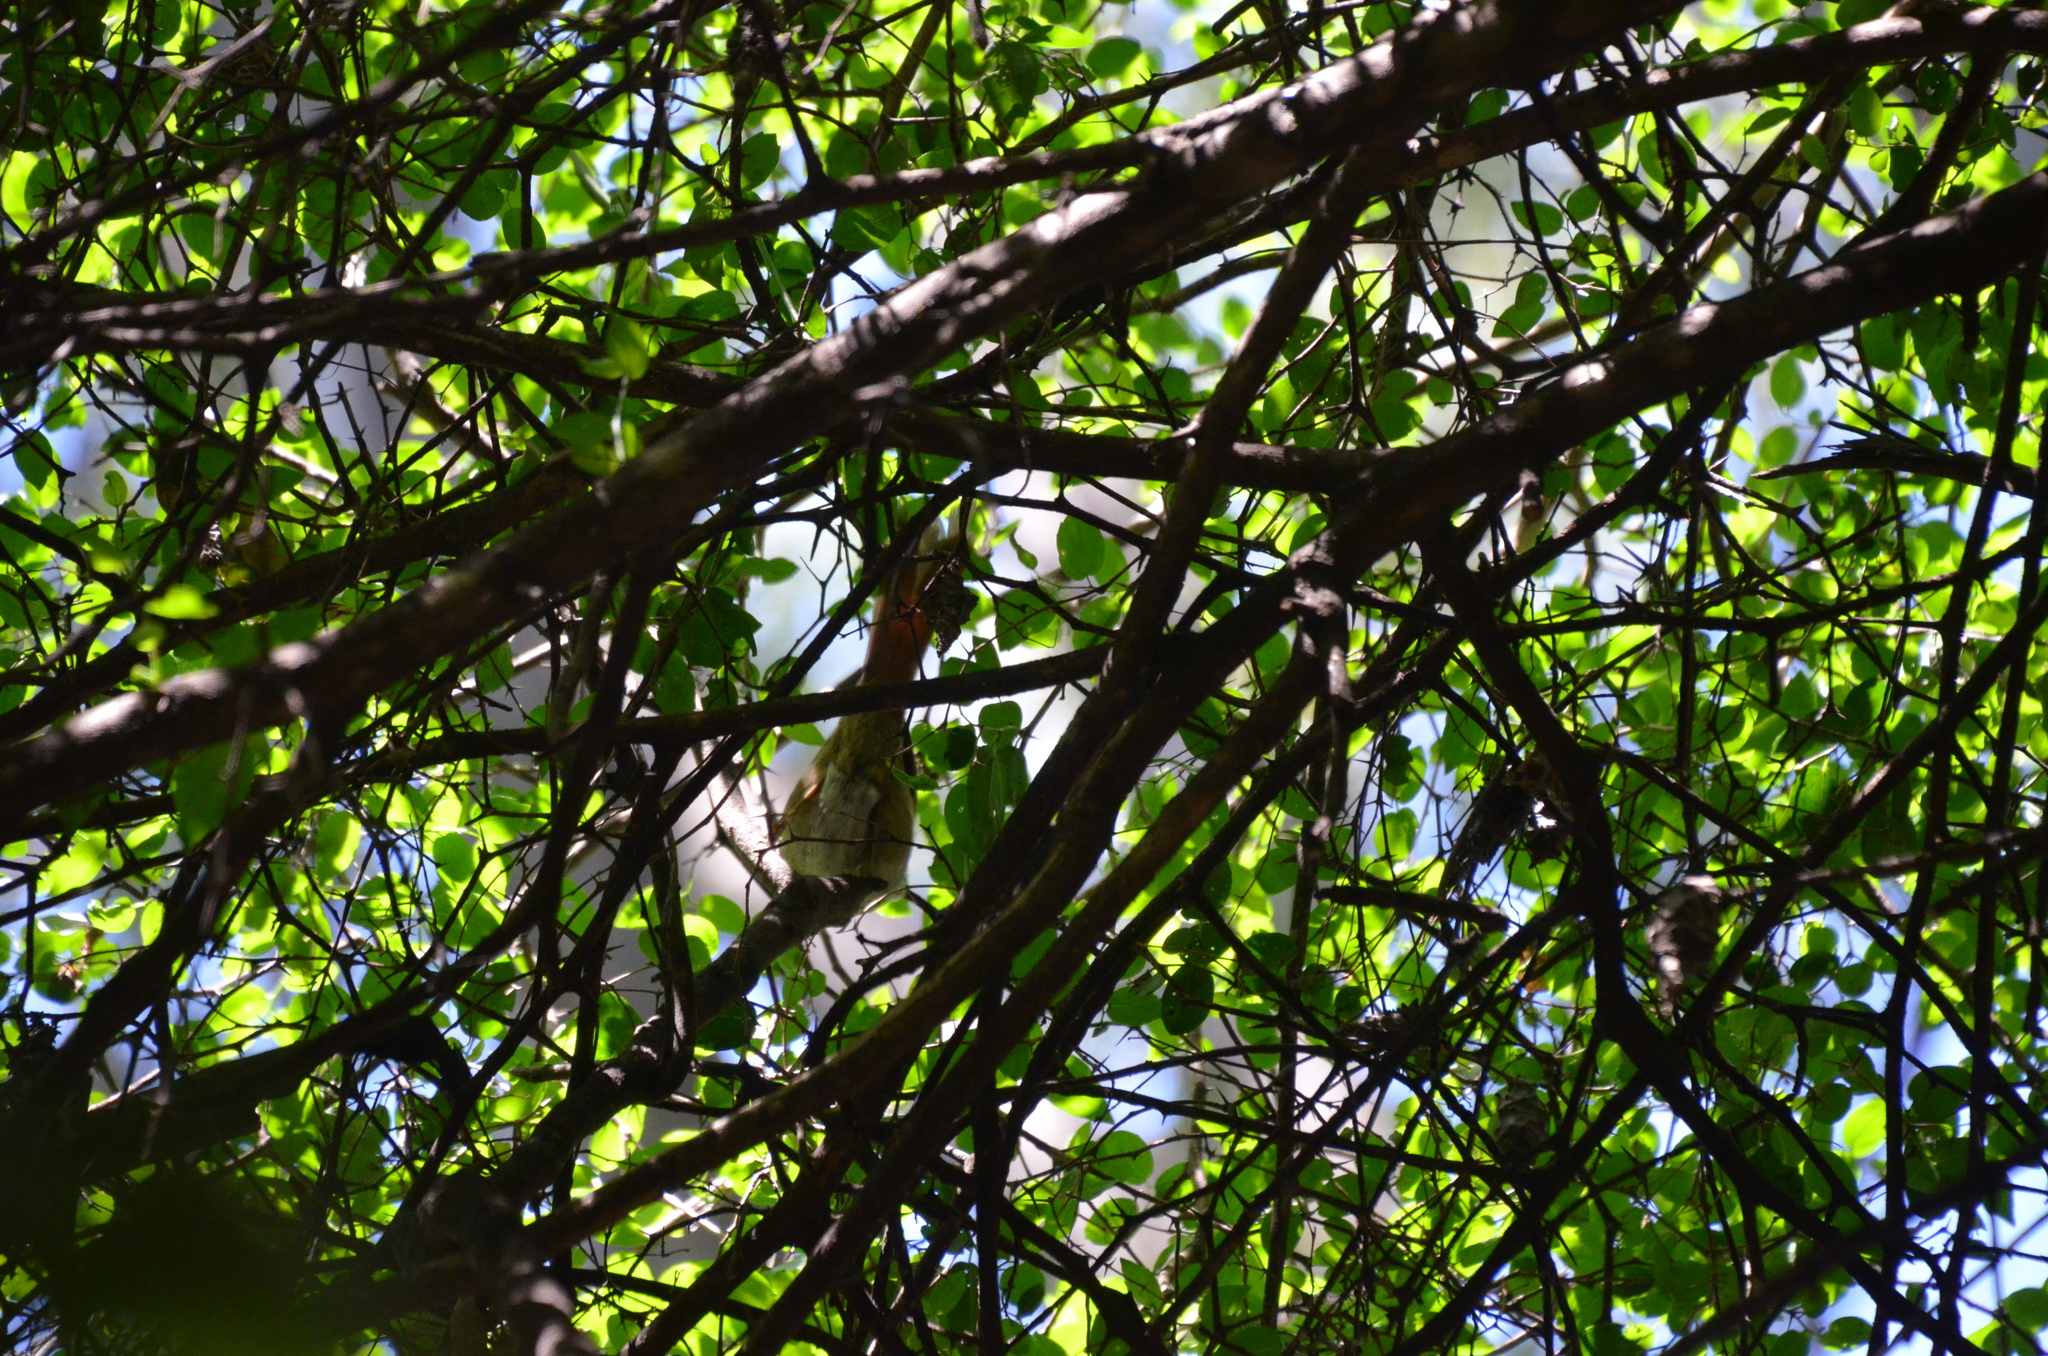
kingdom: Animalia
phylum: Chordata
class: Aves
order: Passeriformes
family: Furnariidae
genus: Synallaxis
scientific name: Synallaxis frontalis
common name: Sooty-fronted spinetail
